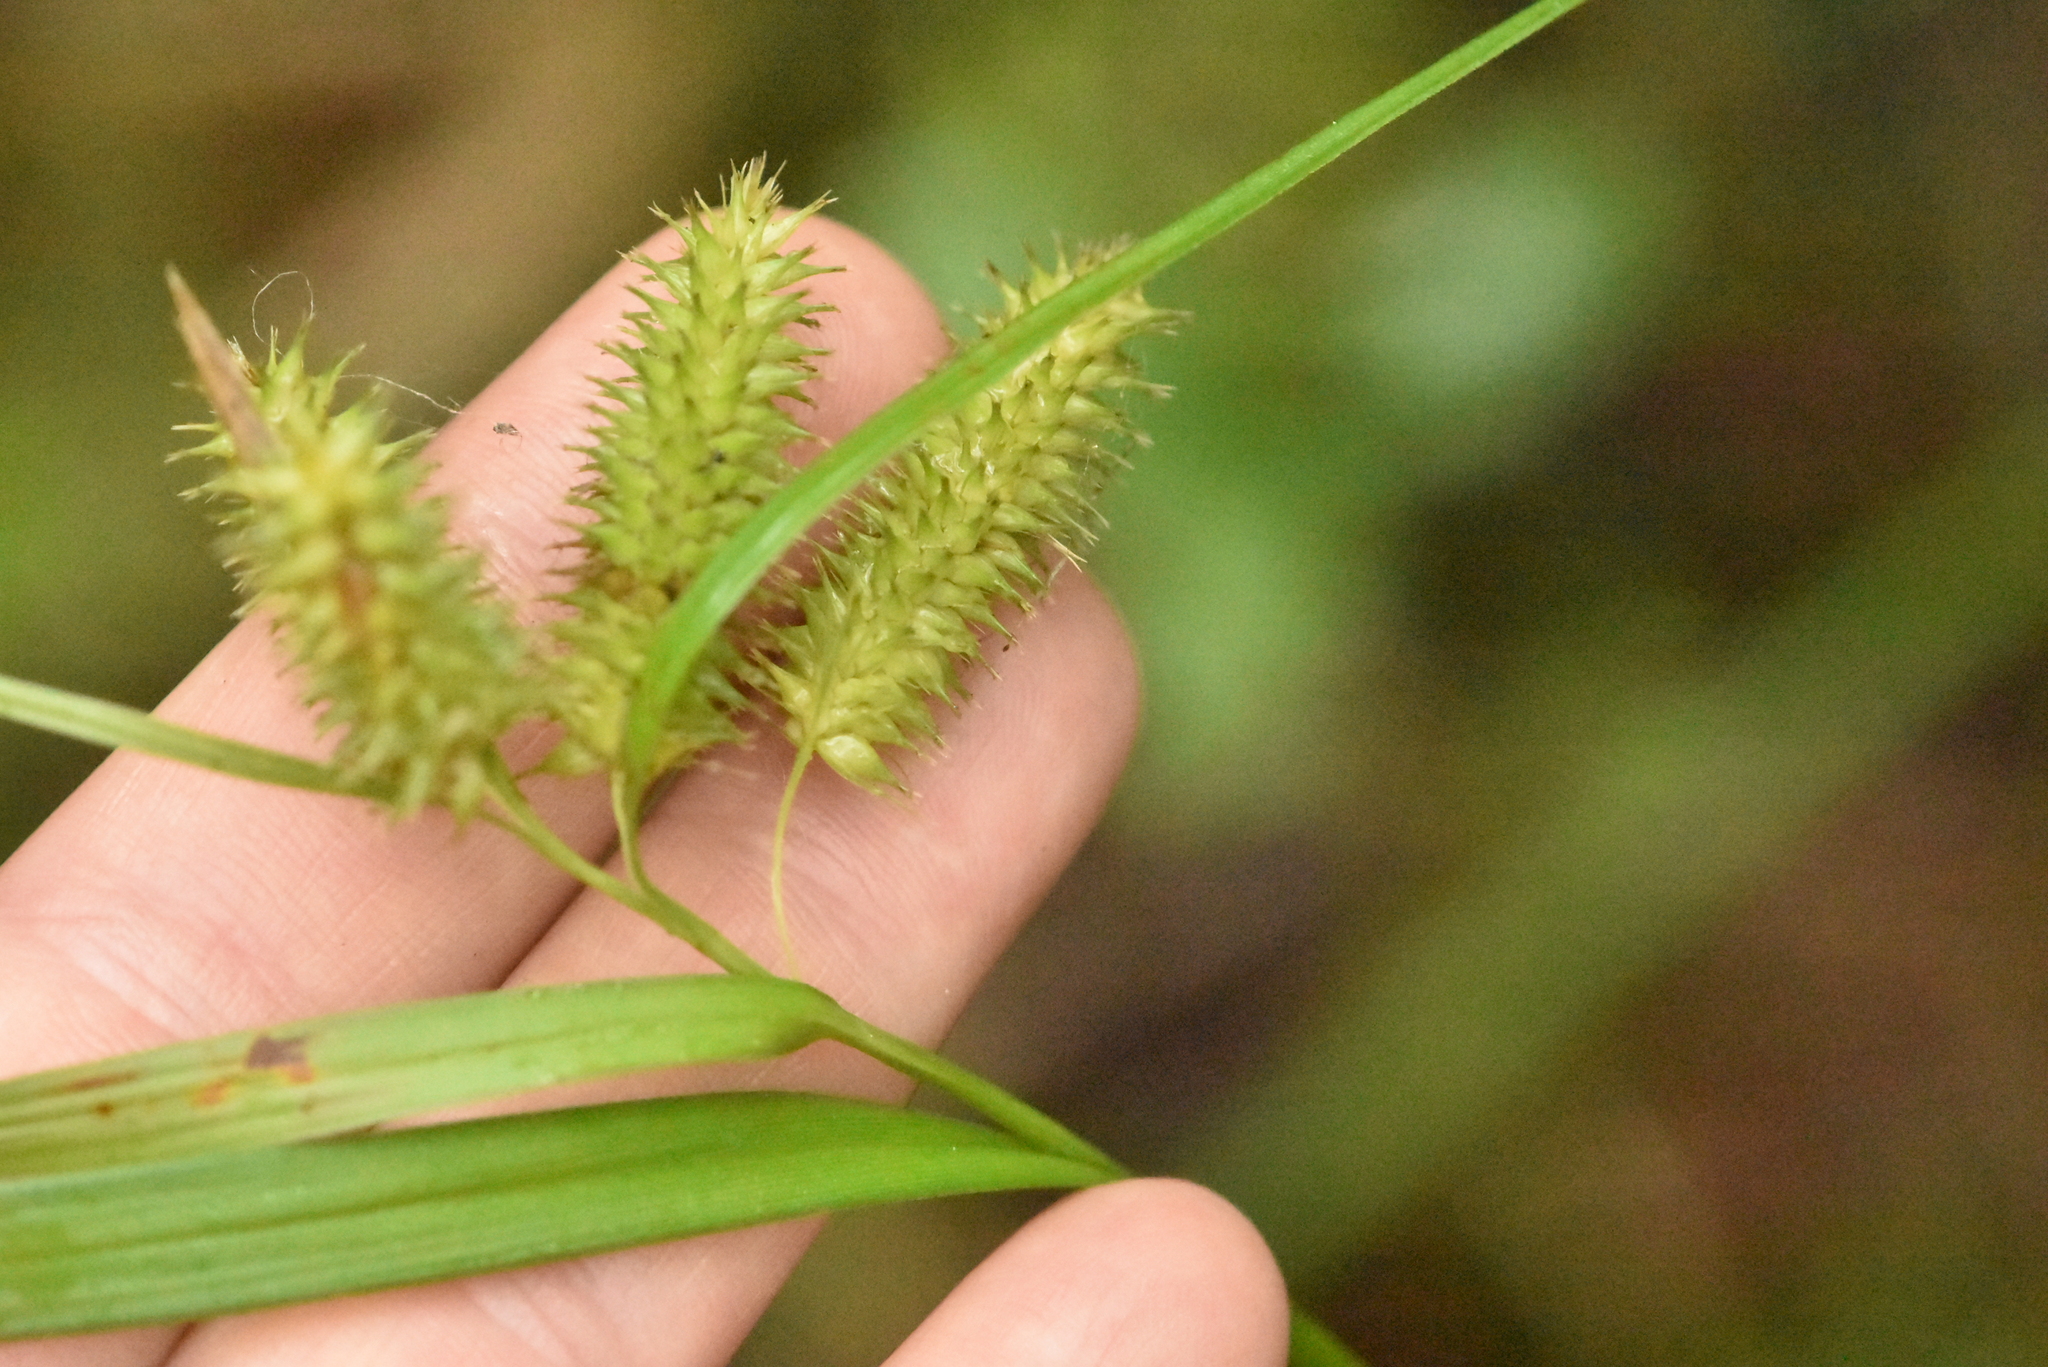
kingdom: Plantae
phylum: Tracheophyta
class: Liliopsida
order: Poales
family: Cyperaceae
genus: Carex
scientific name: Carex pseudocyperus
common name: Cyperus sedge
